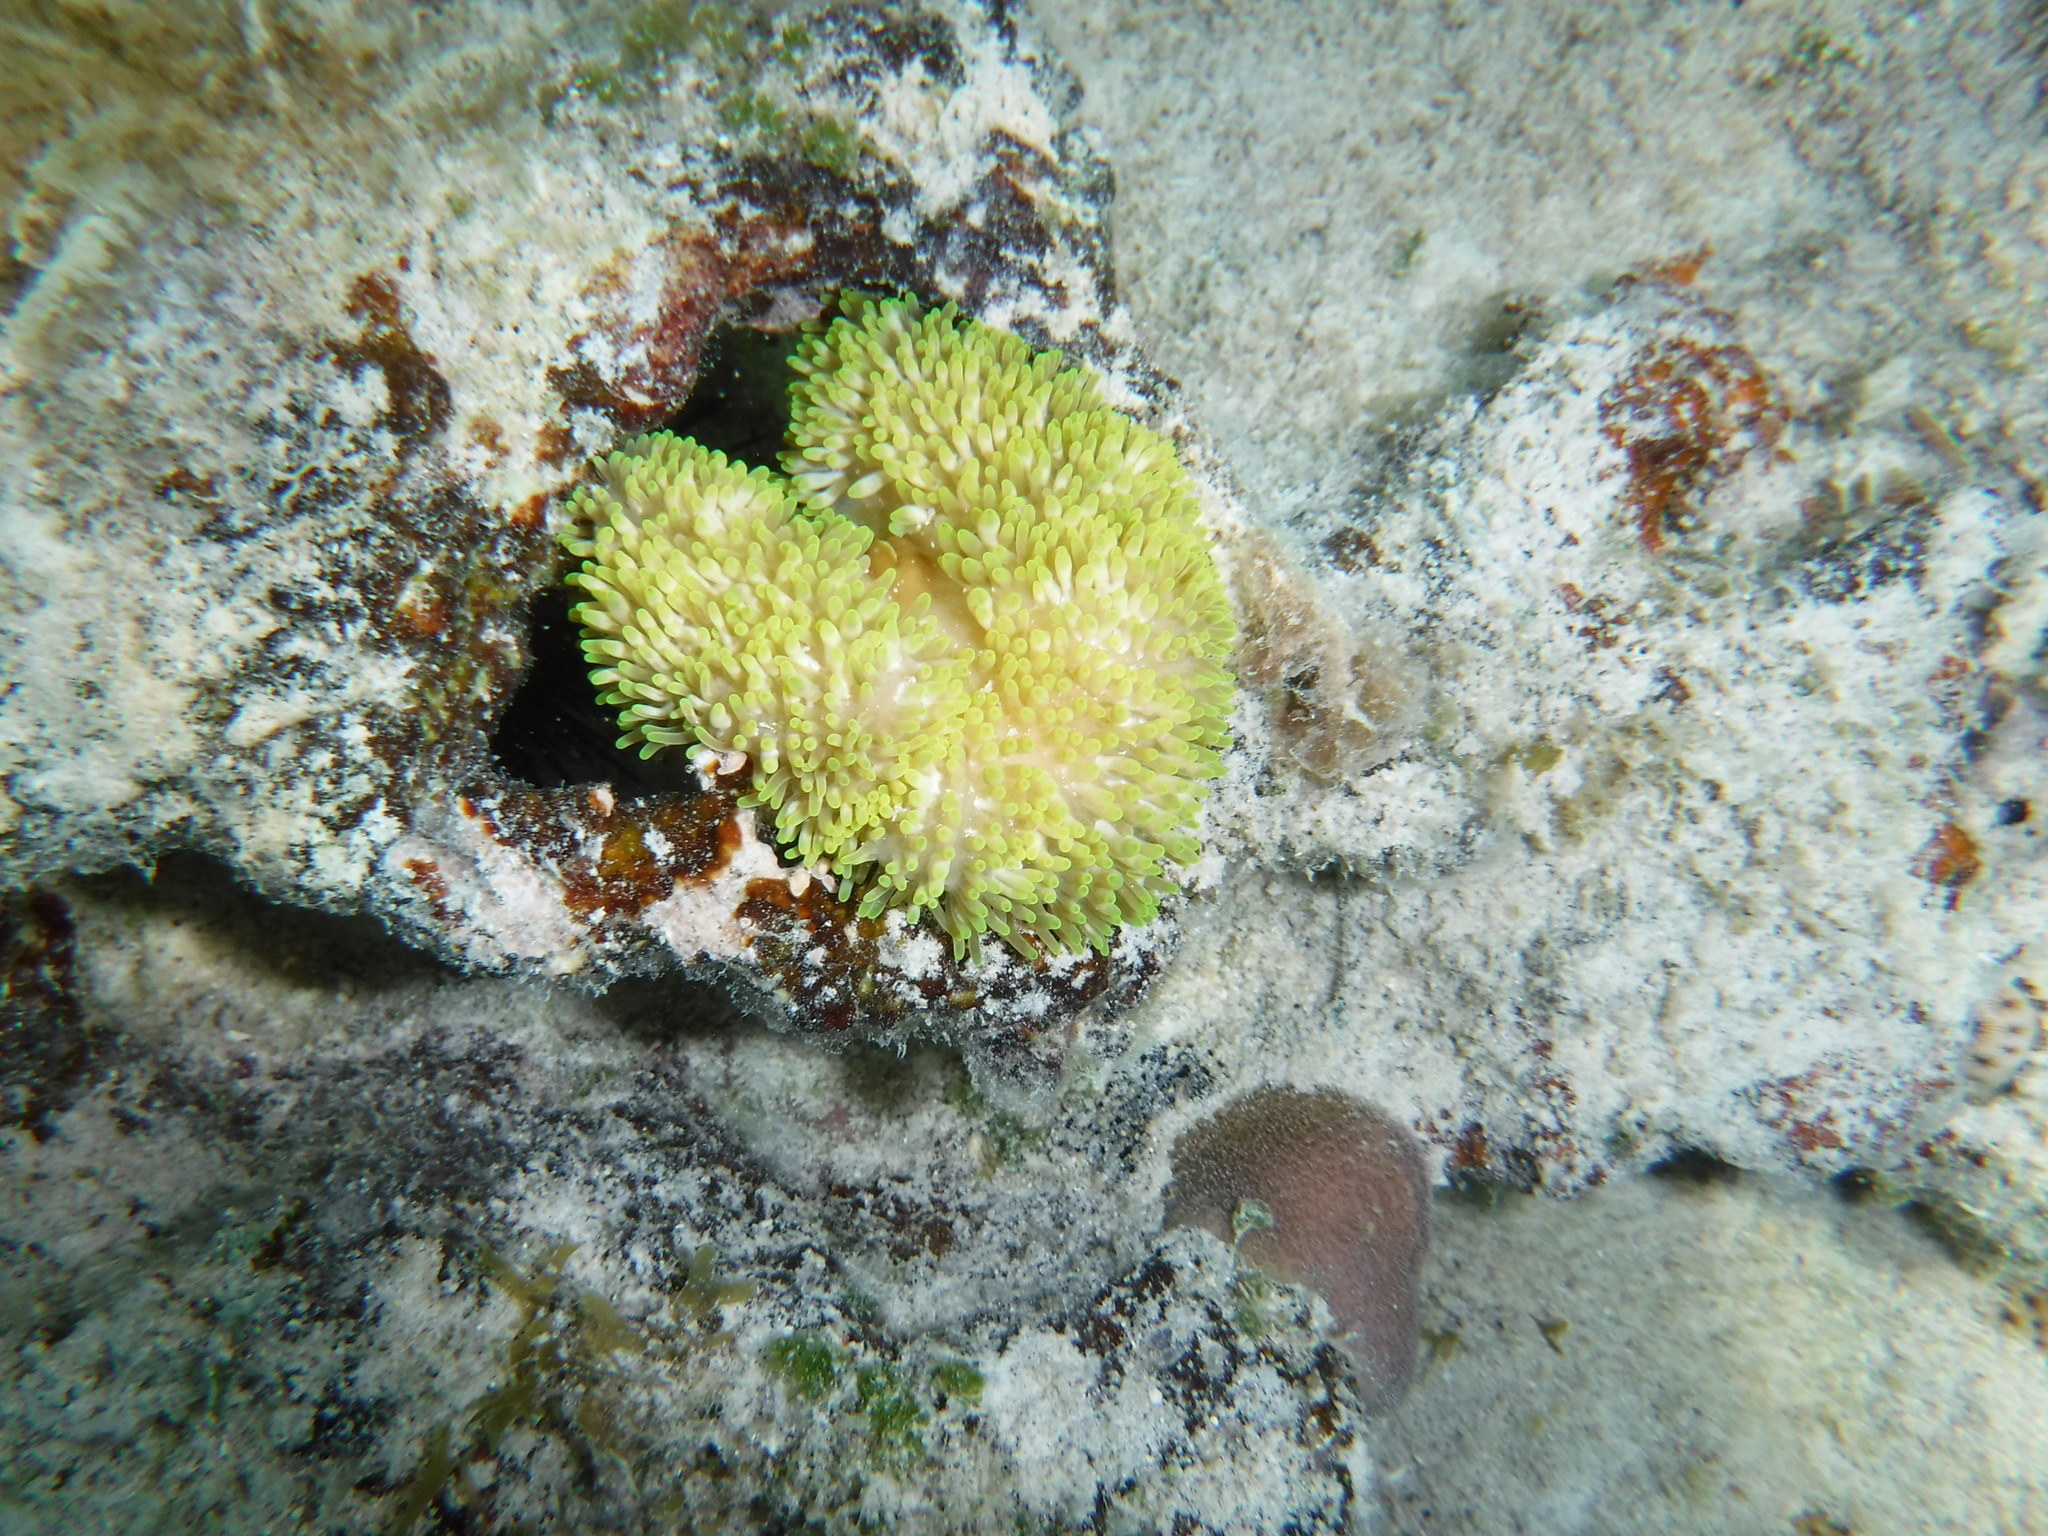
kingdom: Animalia
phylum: Cnidaria
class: Anthozoa
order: Actiniaria
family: Stichodactylidae
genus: Stichodactyla
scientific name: Stichodactyla helianthus
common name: Sun anemone
